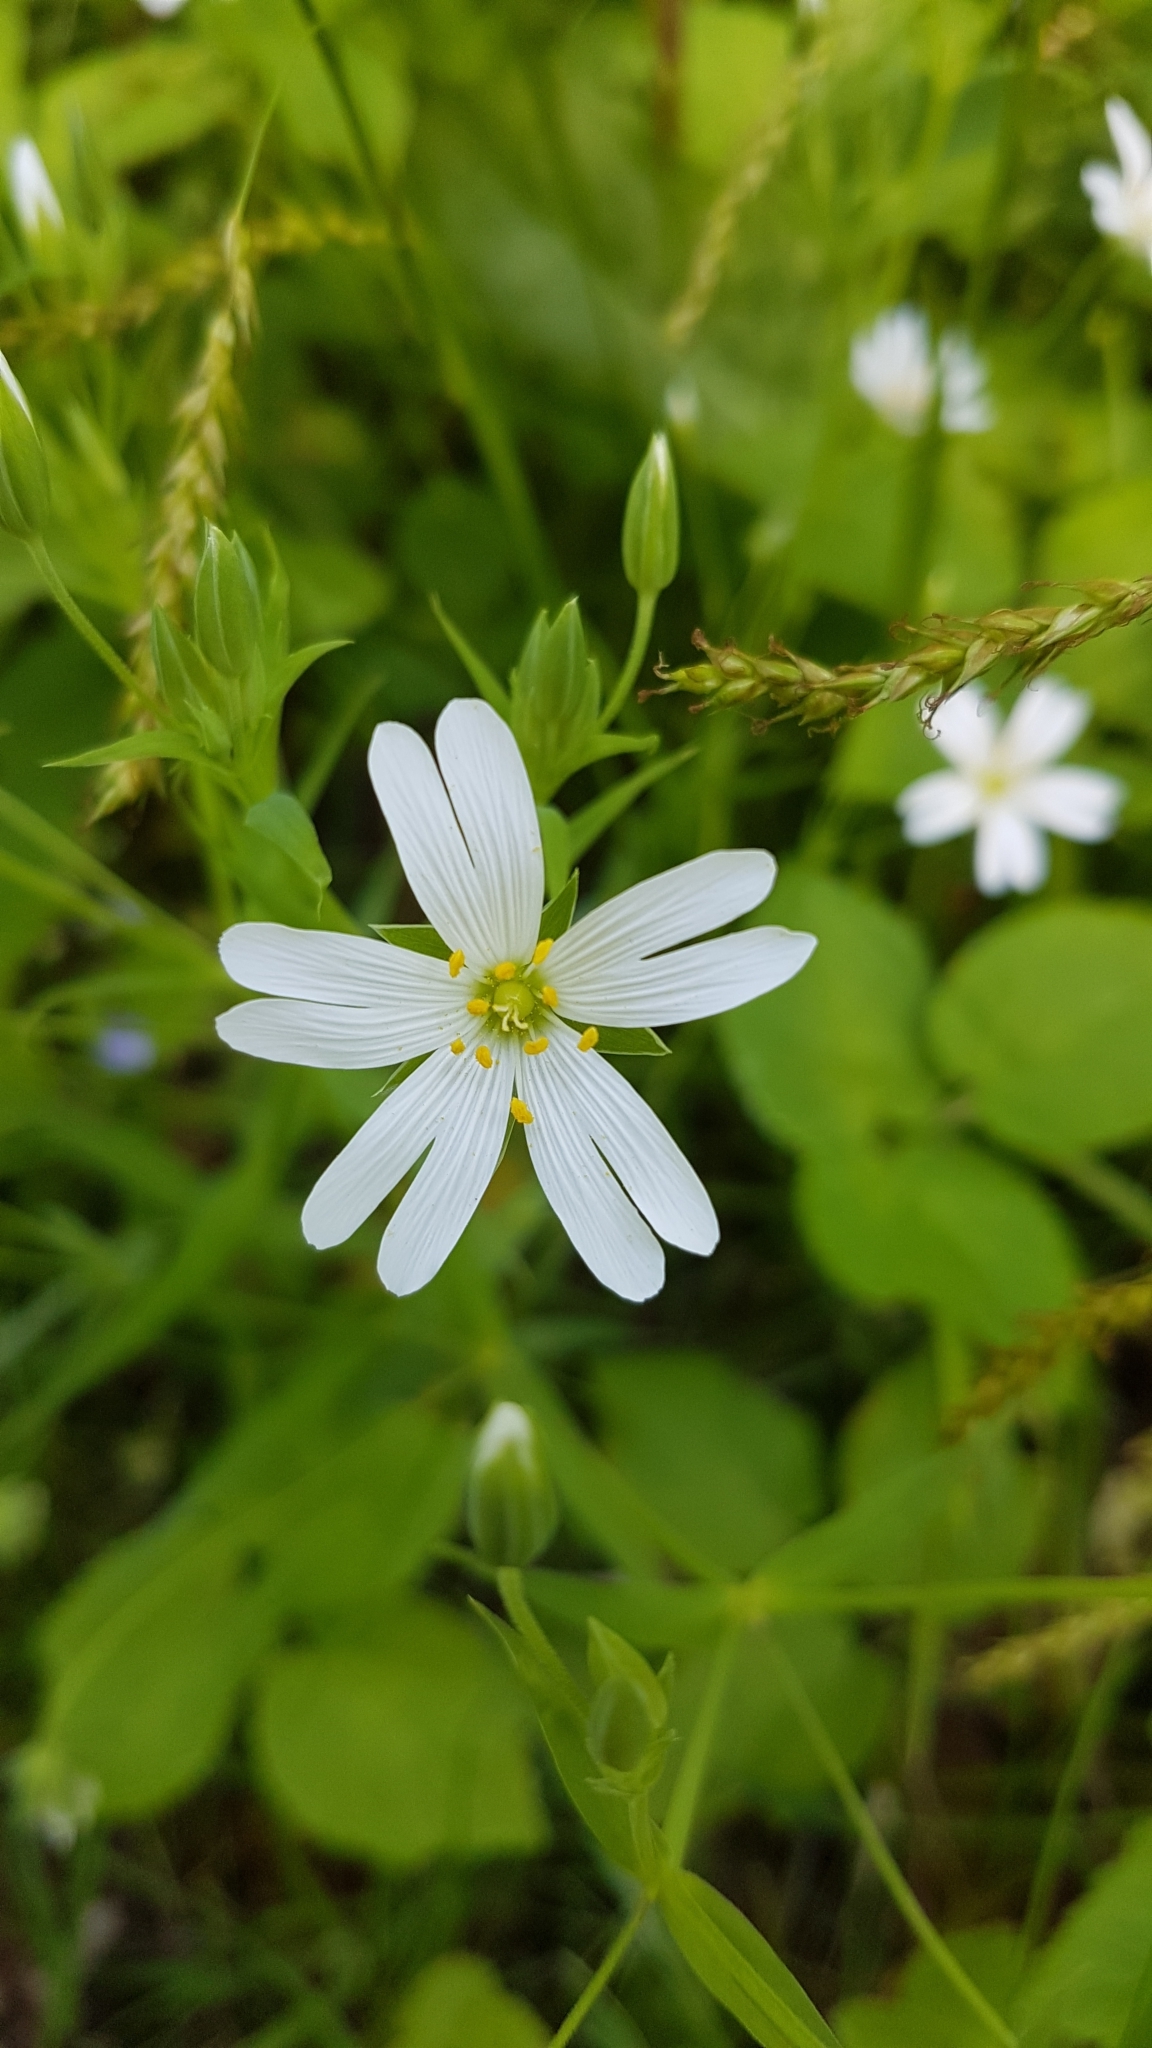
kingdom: Plantae
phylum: Tracheophyta
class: Magnoliopsida
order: Caryophyllales
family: Caryophyllaceae
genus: Rabelera
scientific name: Rabelera holostea
